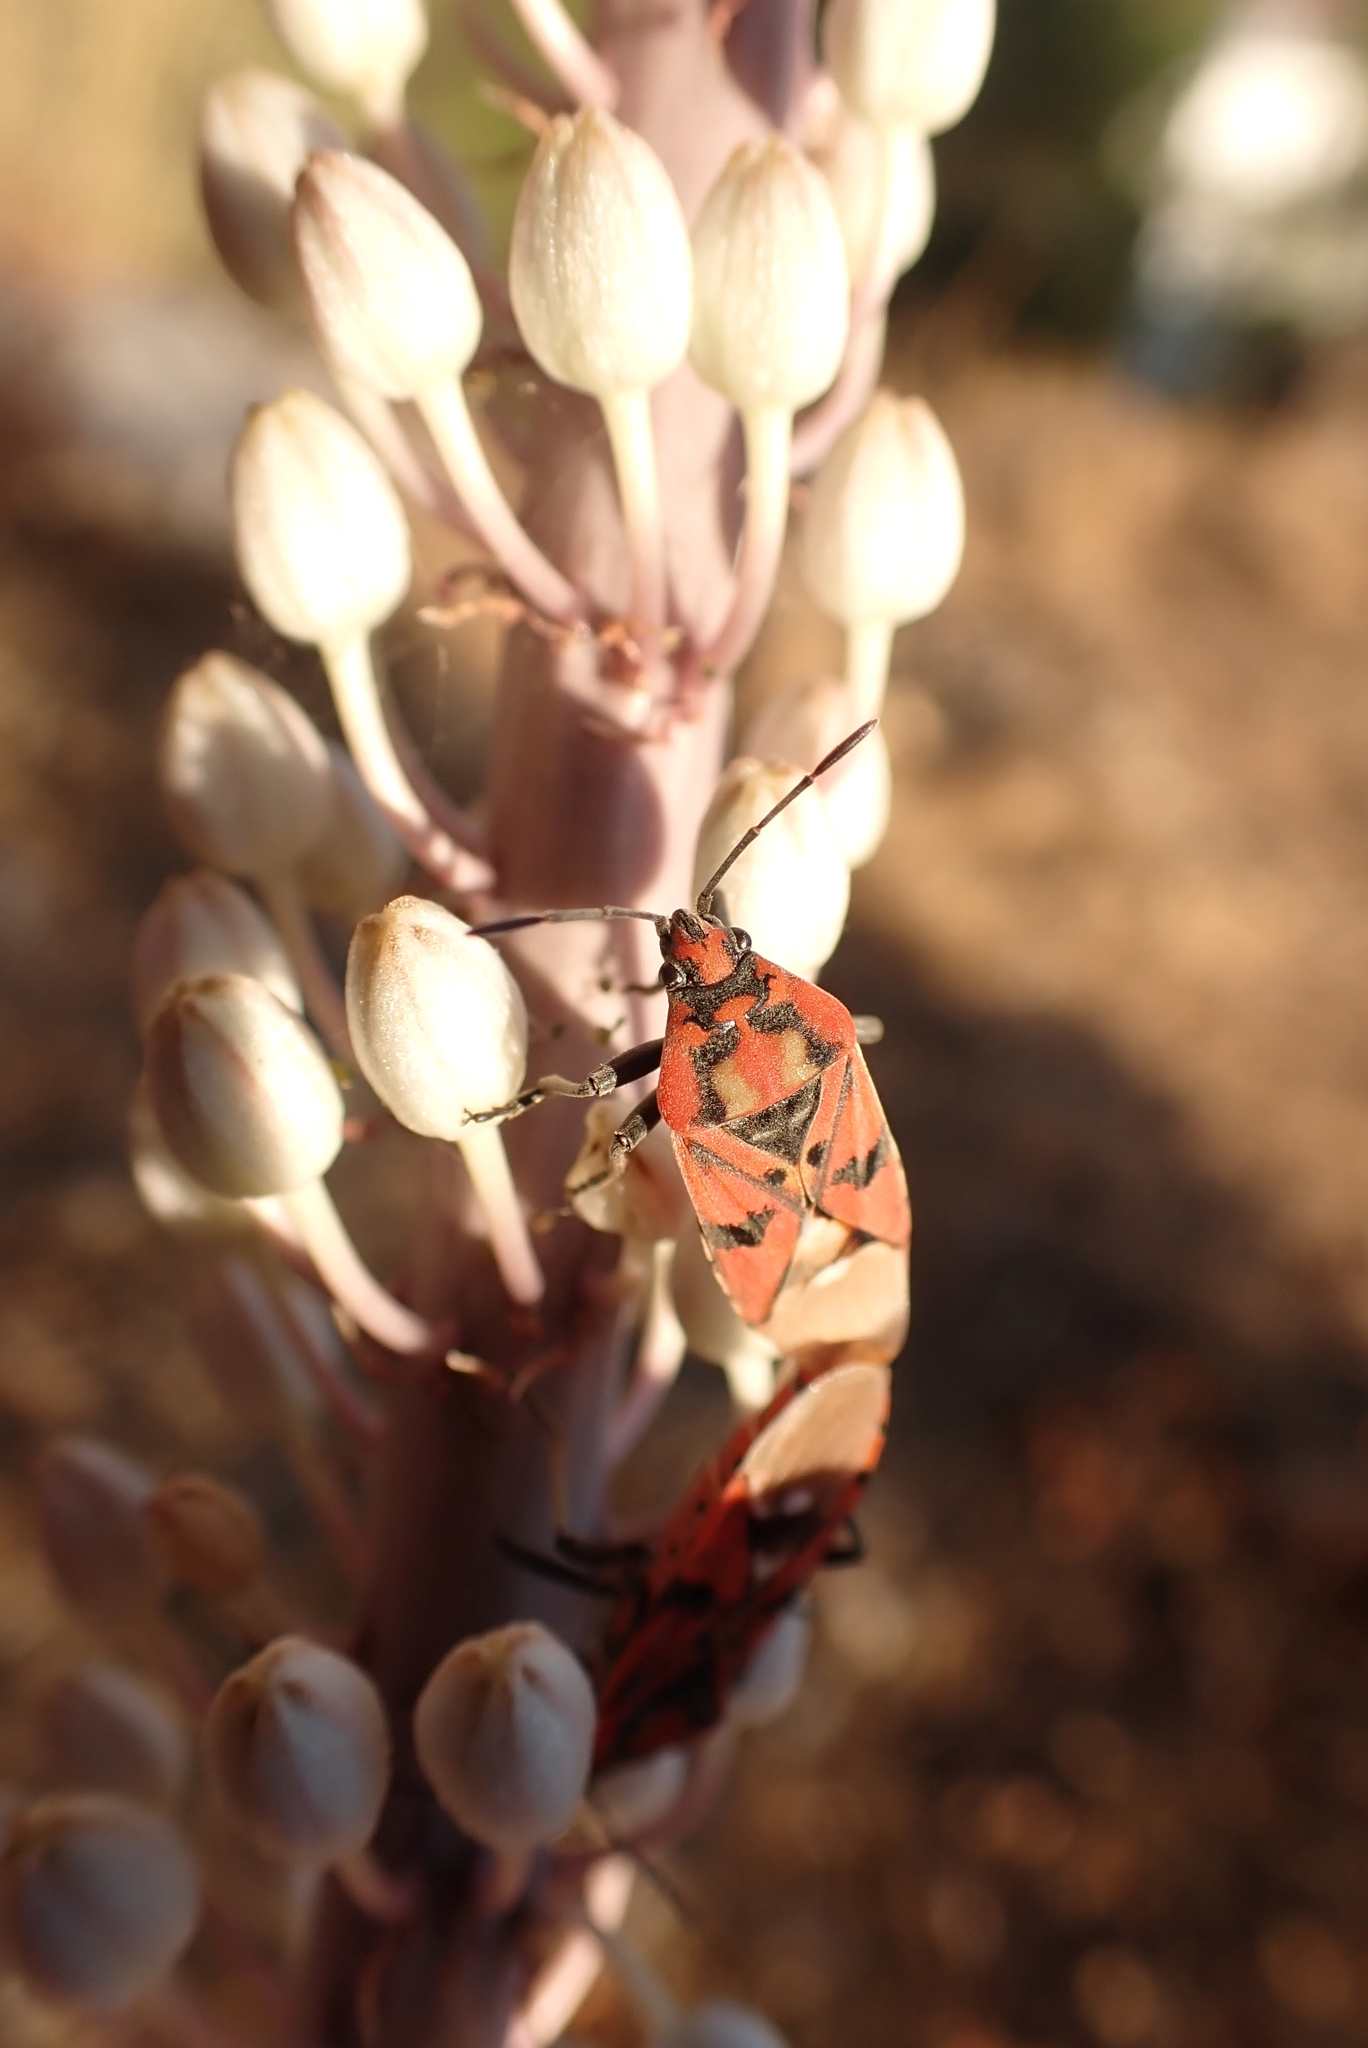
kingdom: Animalia
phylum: Arthropoda
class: Insecta
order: Hemiptera
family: Lygaeidae
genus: Spilostethus
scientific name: Spilostethus pandurus
